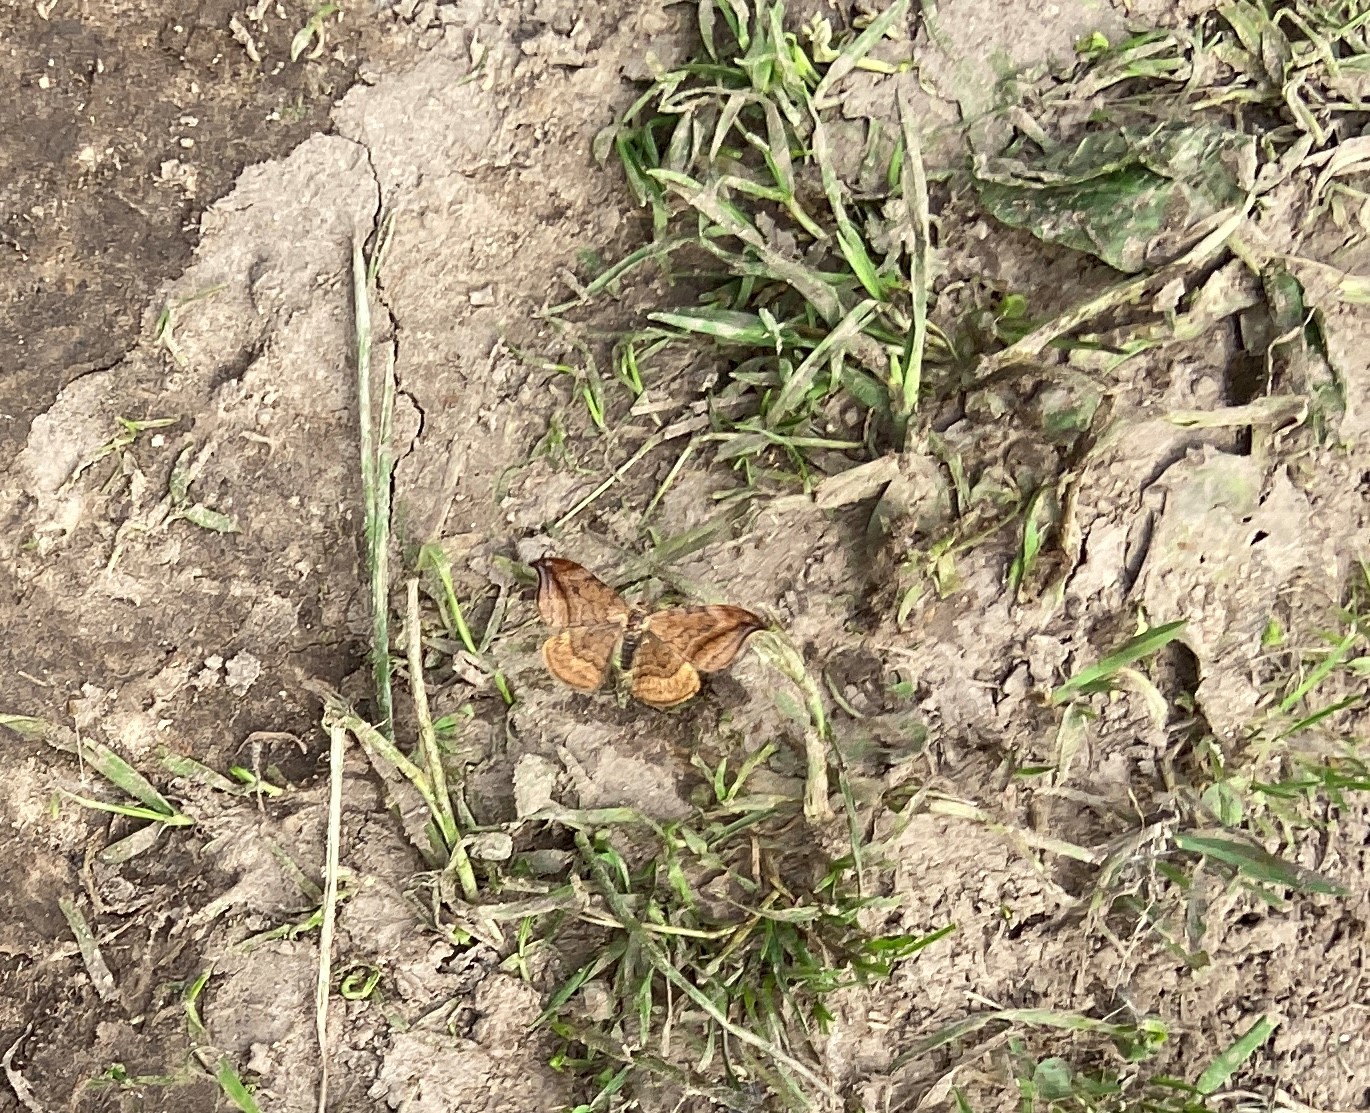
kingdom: Animalia
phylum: Arthropoda
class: Insecta
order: Lepidoptera
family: Drepanidae
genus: Drepana
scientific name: Drepana curvatula
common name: Dusky hook-tip
